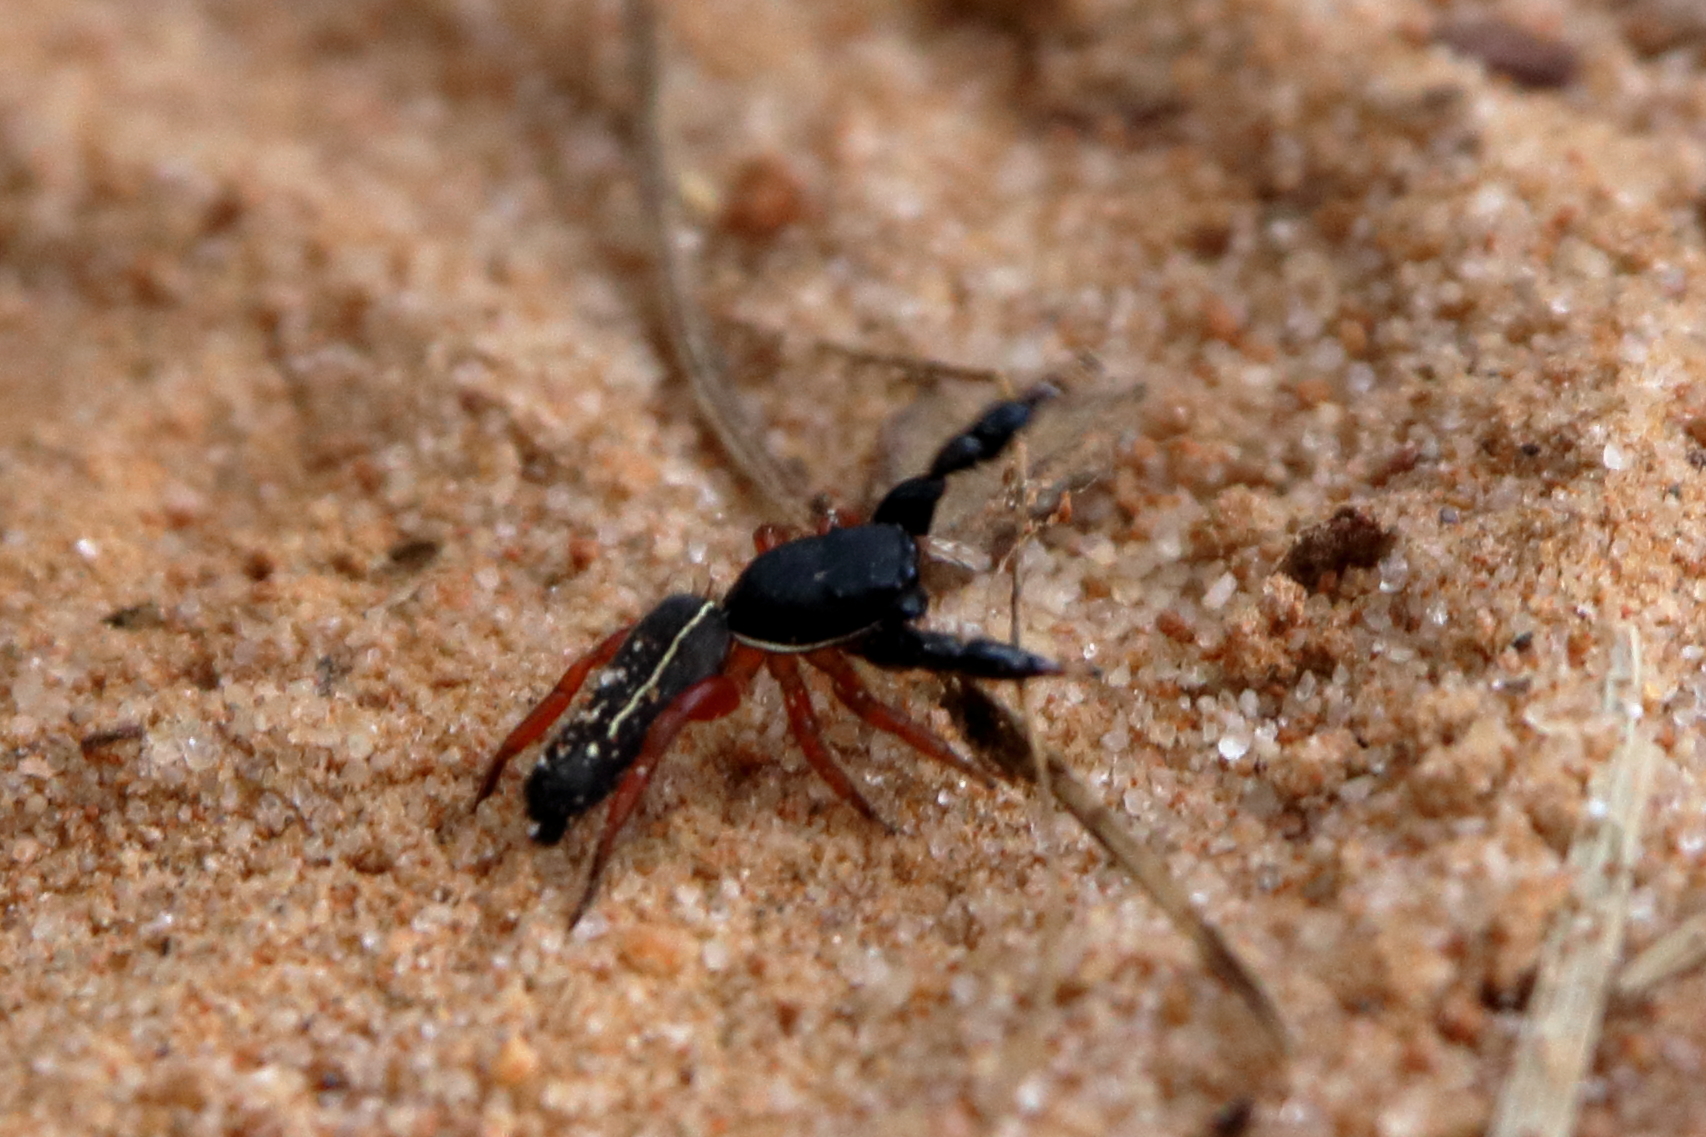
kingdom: Animalia
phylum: Arthropoda
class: Arachnida
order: Araneae
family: Salticidae
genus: Metacyrba
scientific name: Metacyrba taeniola
